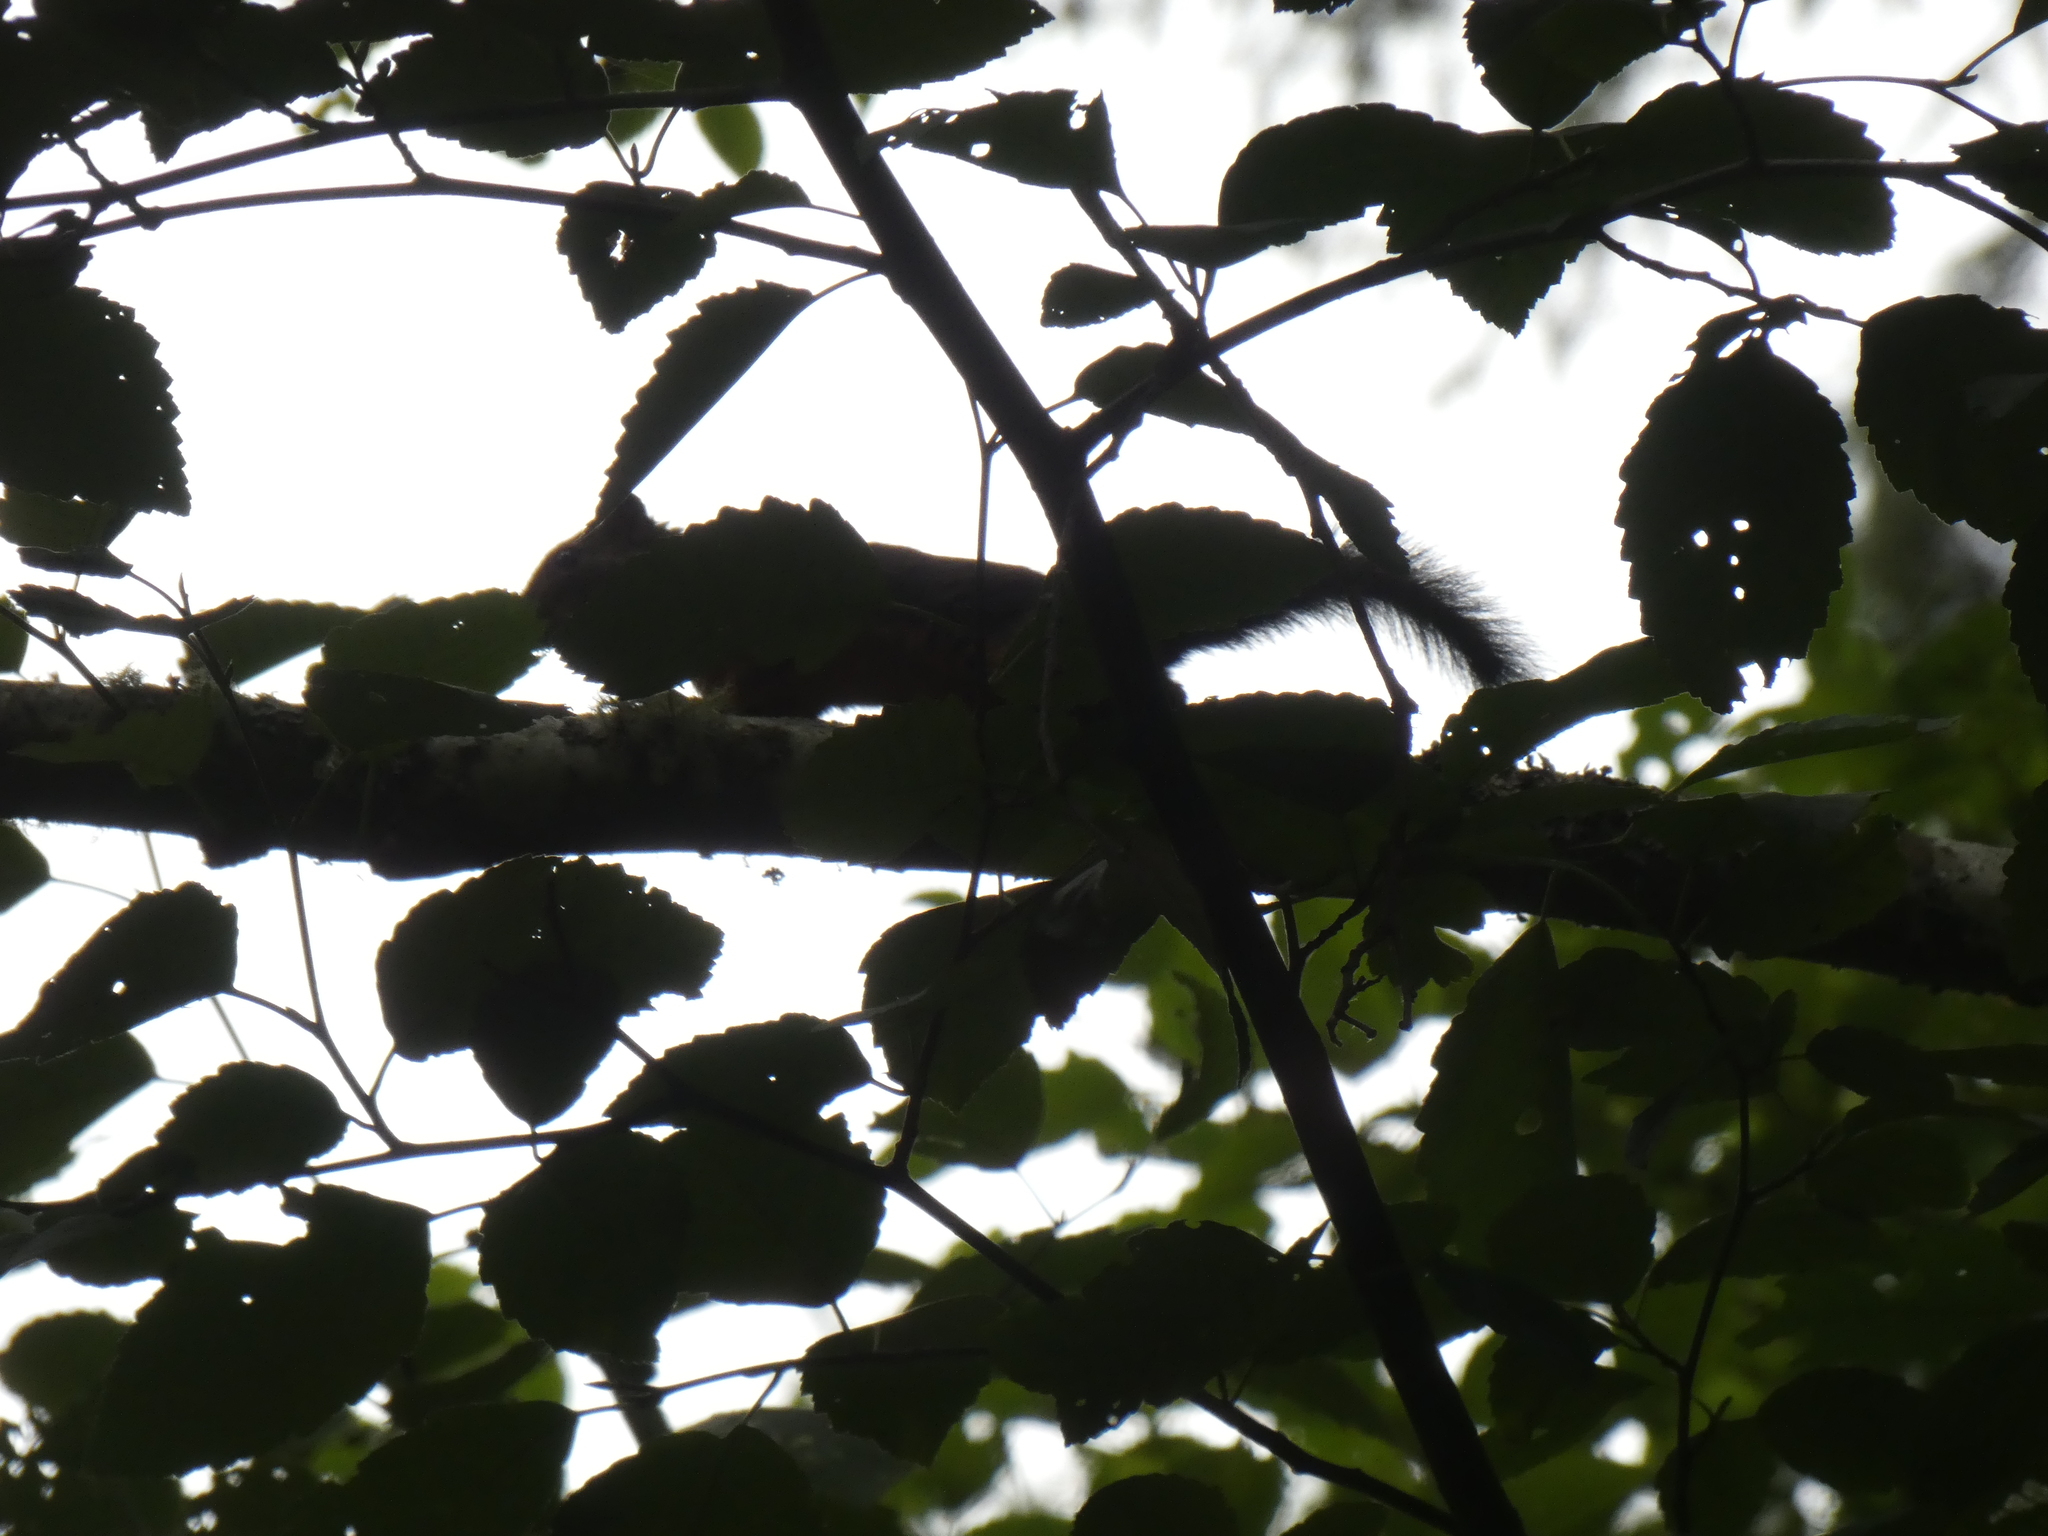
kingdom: Animalia
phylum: Chordata
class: Mammalia
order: Rodentia
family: Sciuridae
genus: Tamiasciurus
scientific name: Tamiasciurus douglasii
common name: Douglas's squirrel
